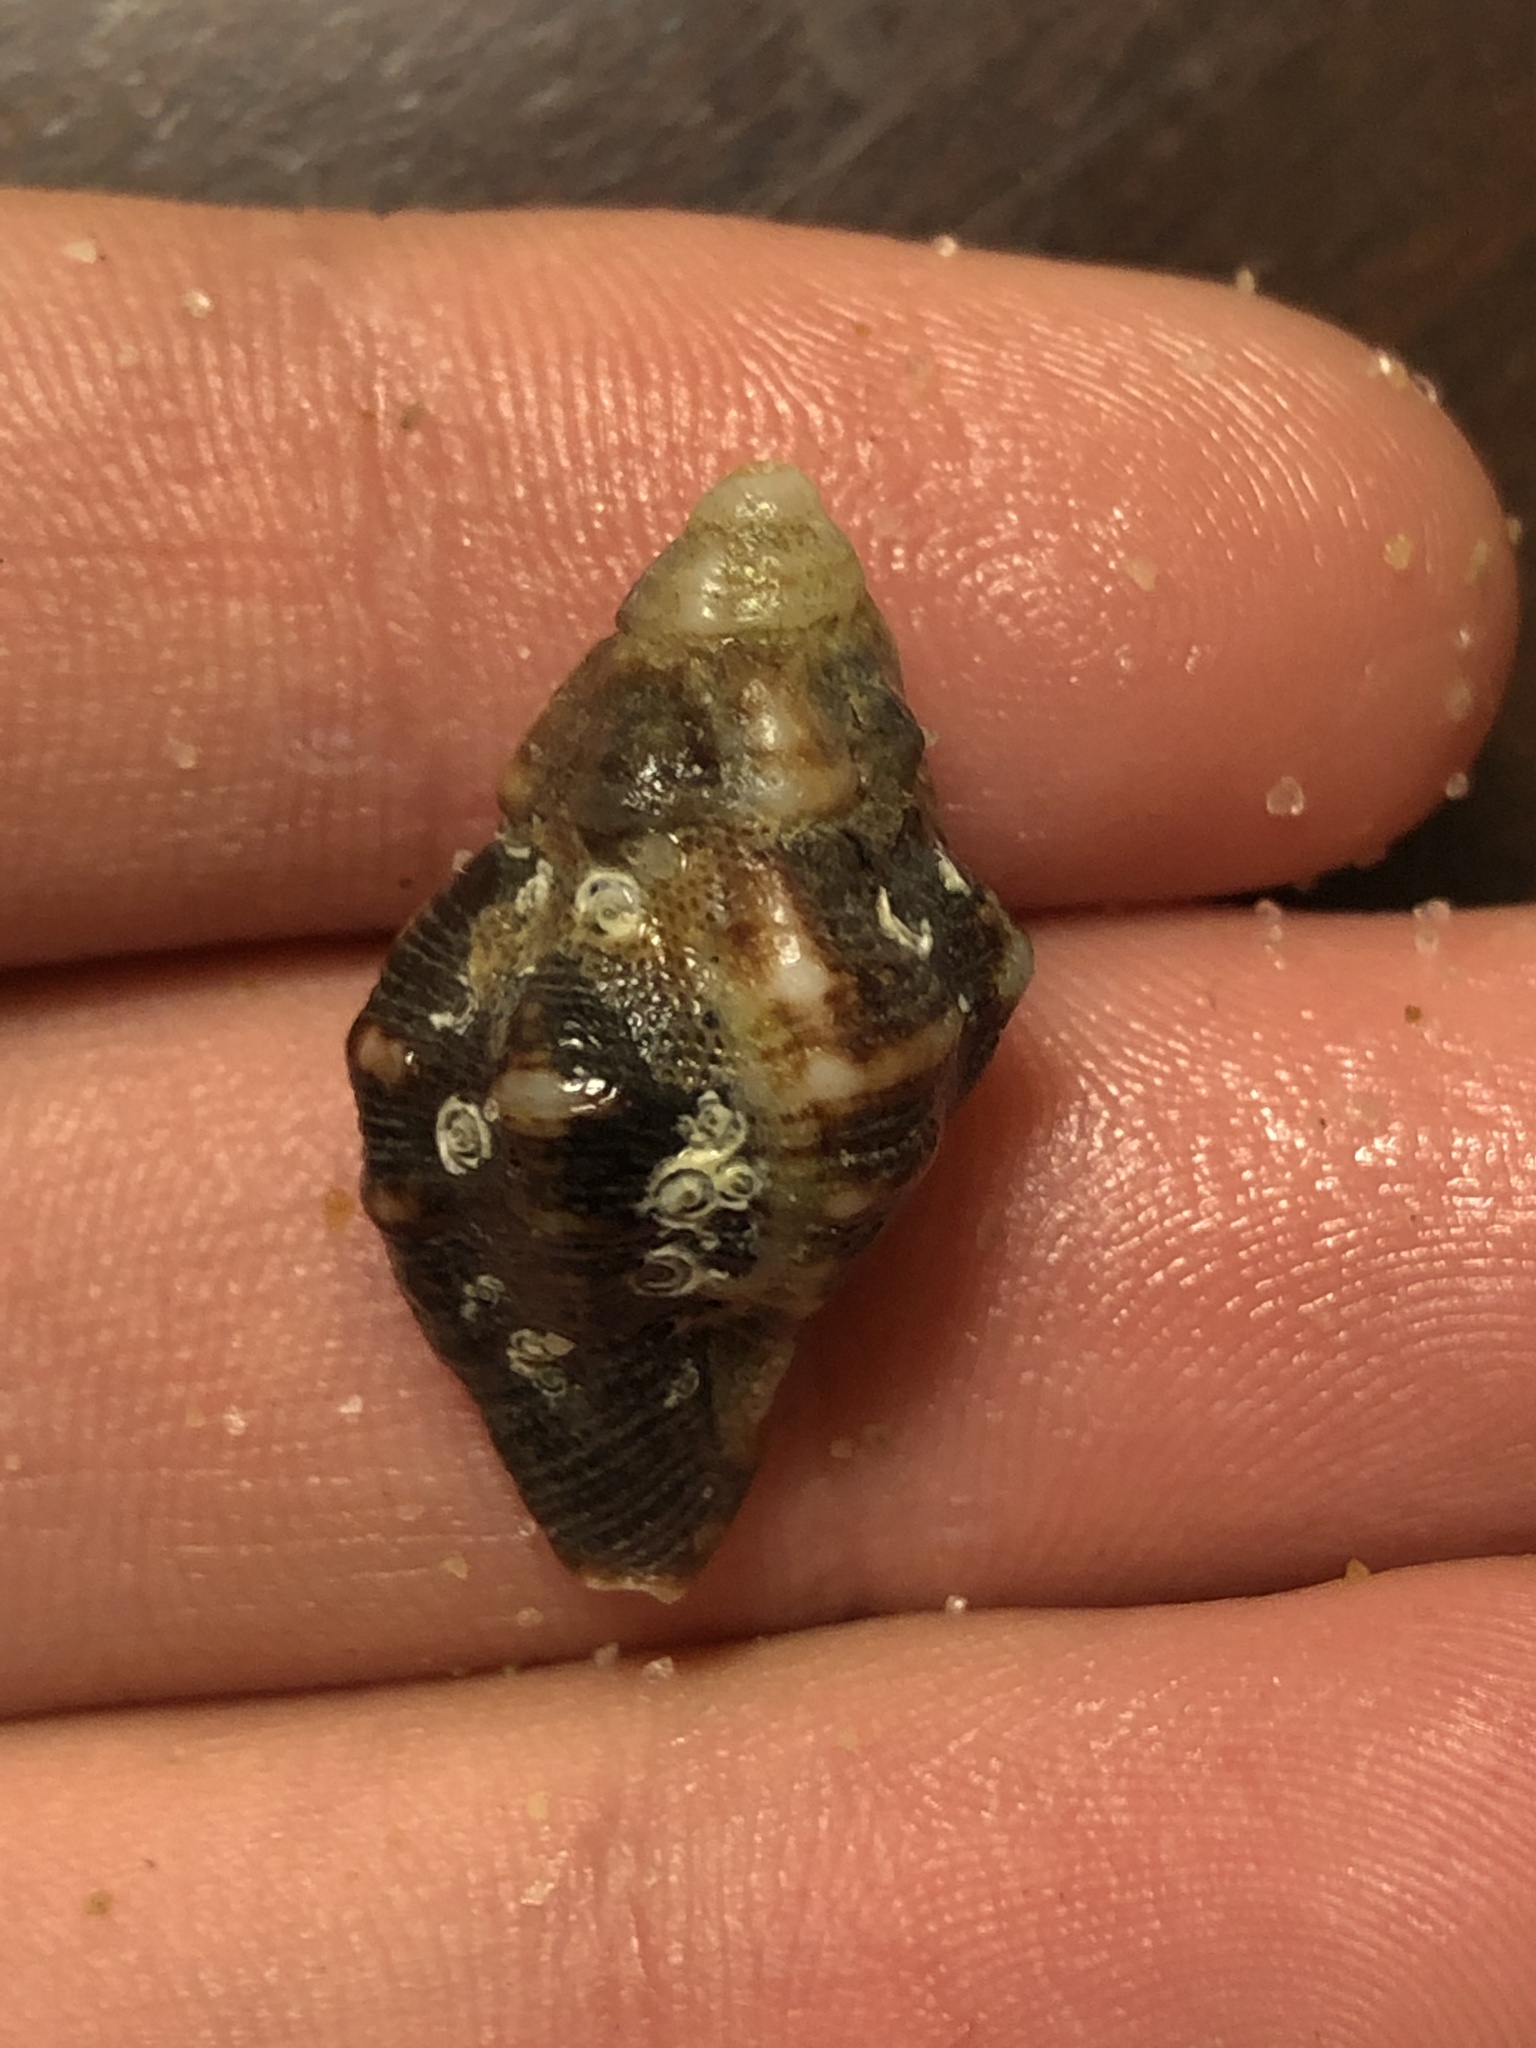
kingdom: Animalia
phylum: Mollusca
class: Gastropoda
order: Neogastropoda
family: Muricidae
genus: Roperia
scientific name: Roperia poulsoni
